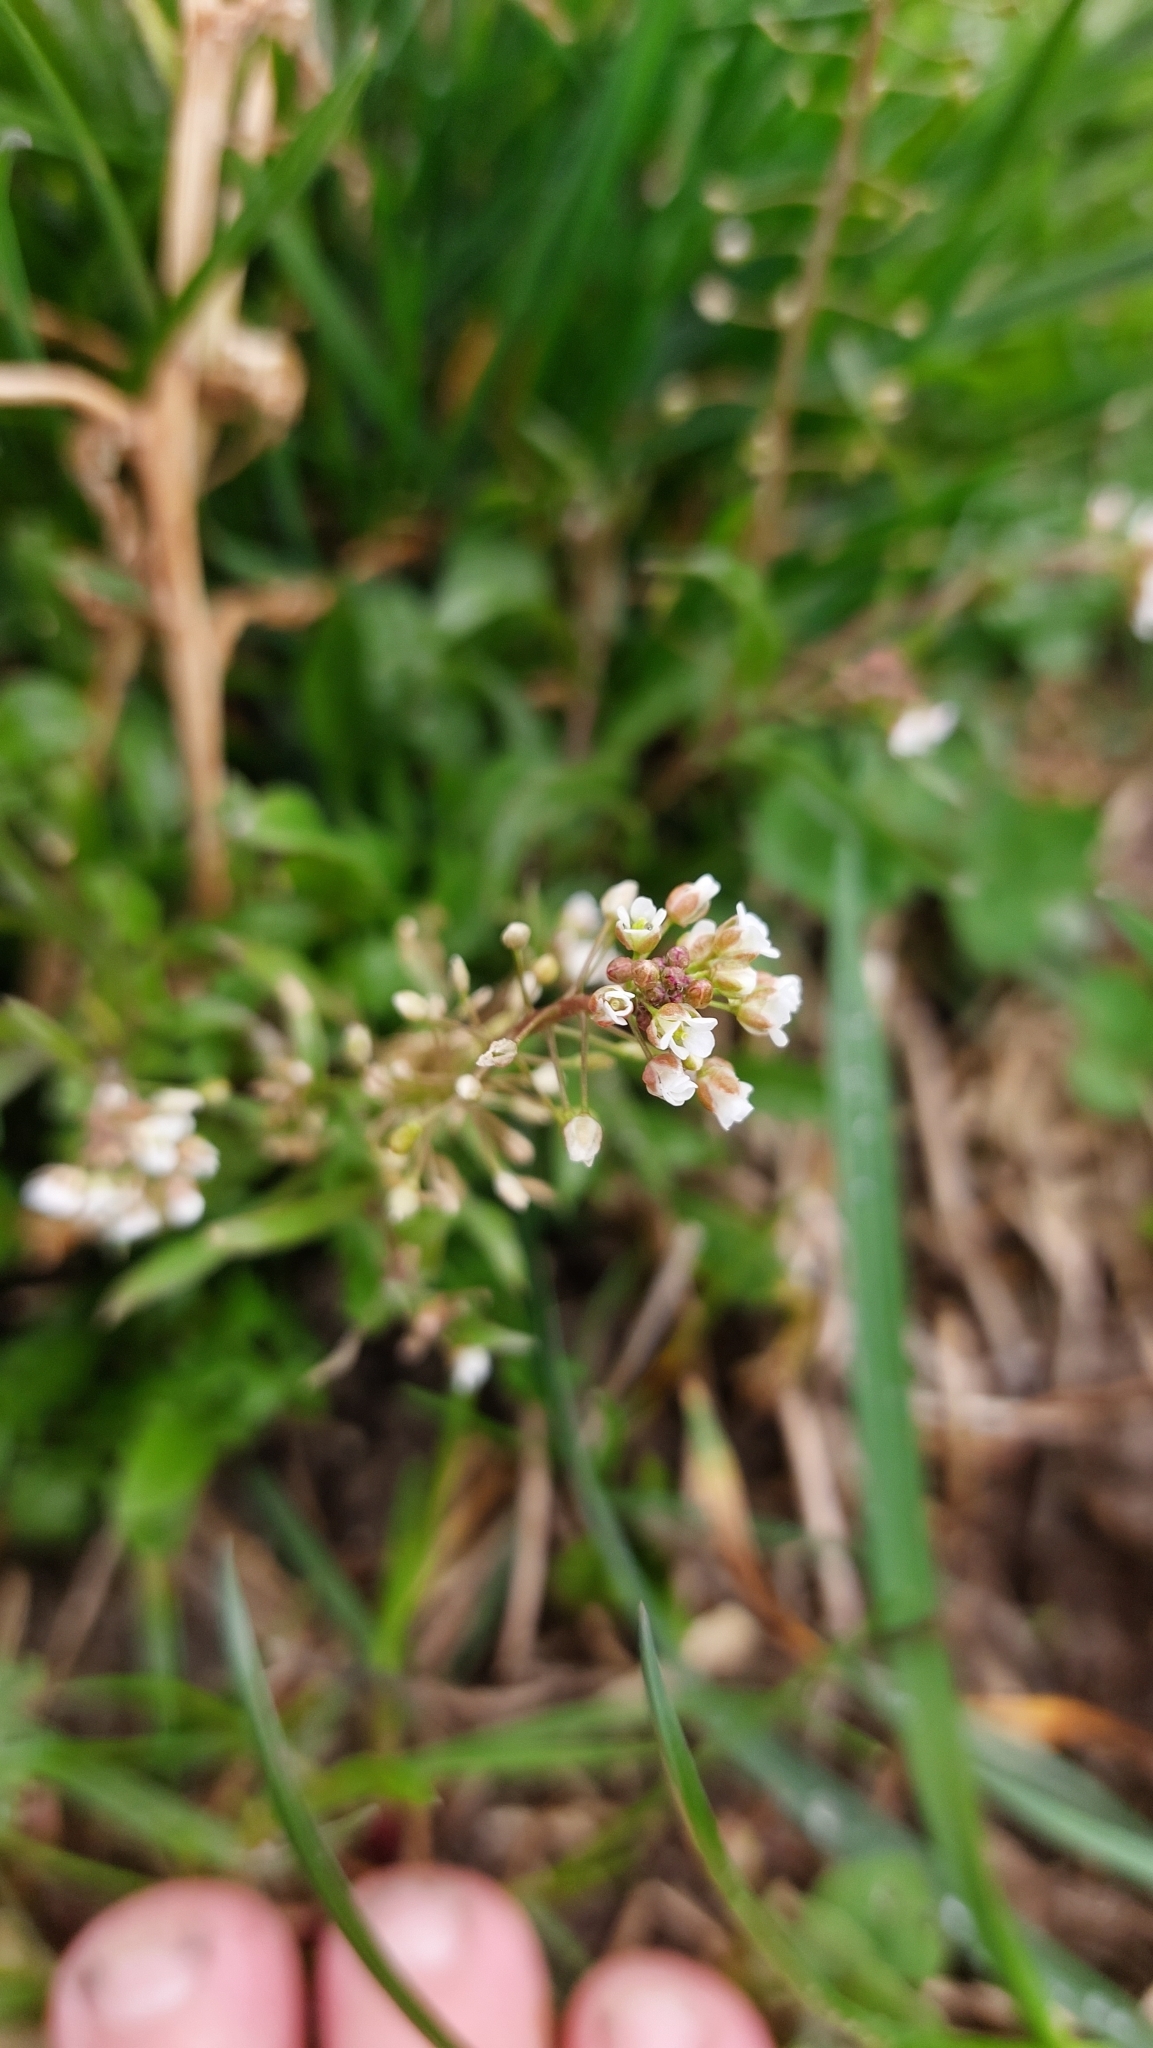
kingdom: Plantae
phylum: Tracheophyta
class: Magnoliopsida
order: Brassicales
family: Brassicaceae
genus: Capsella
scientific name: Capsella bursa-pastoris
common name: Shepherd's purse
